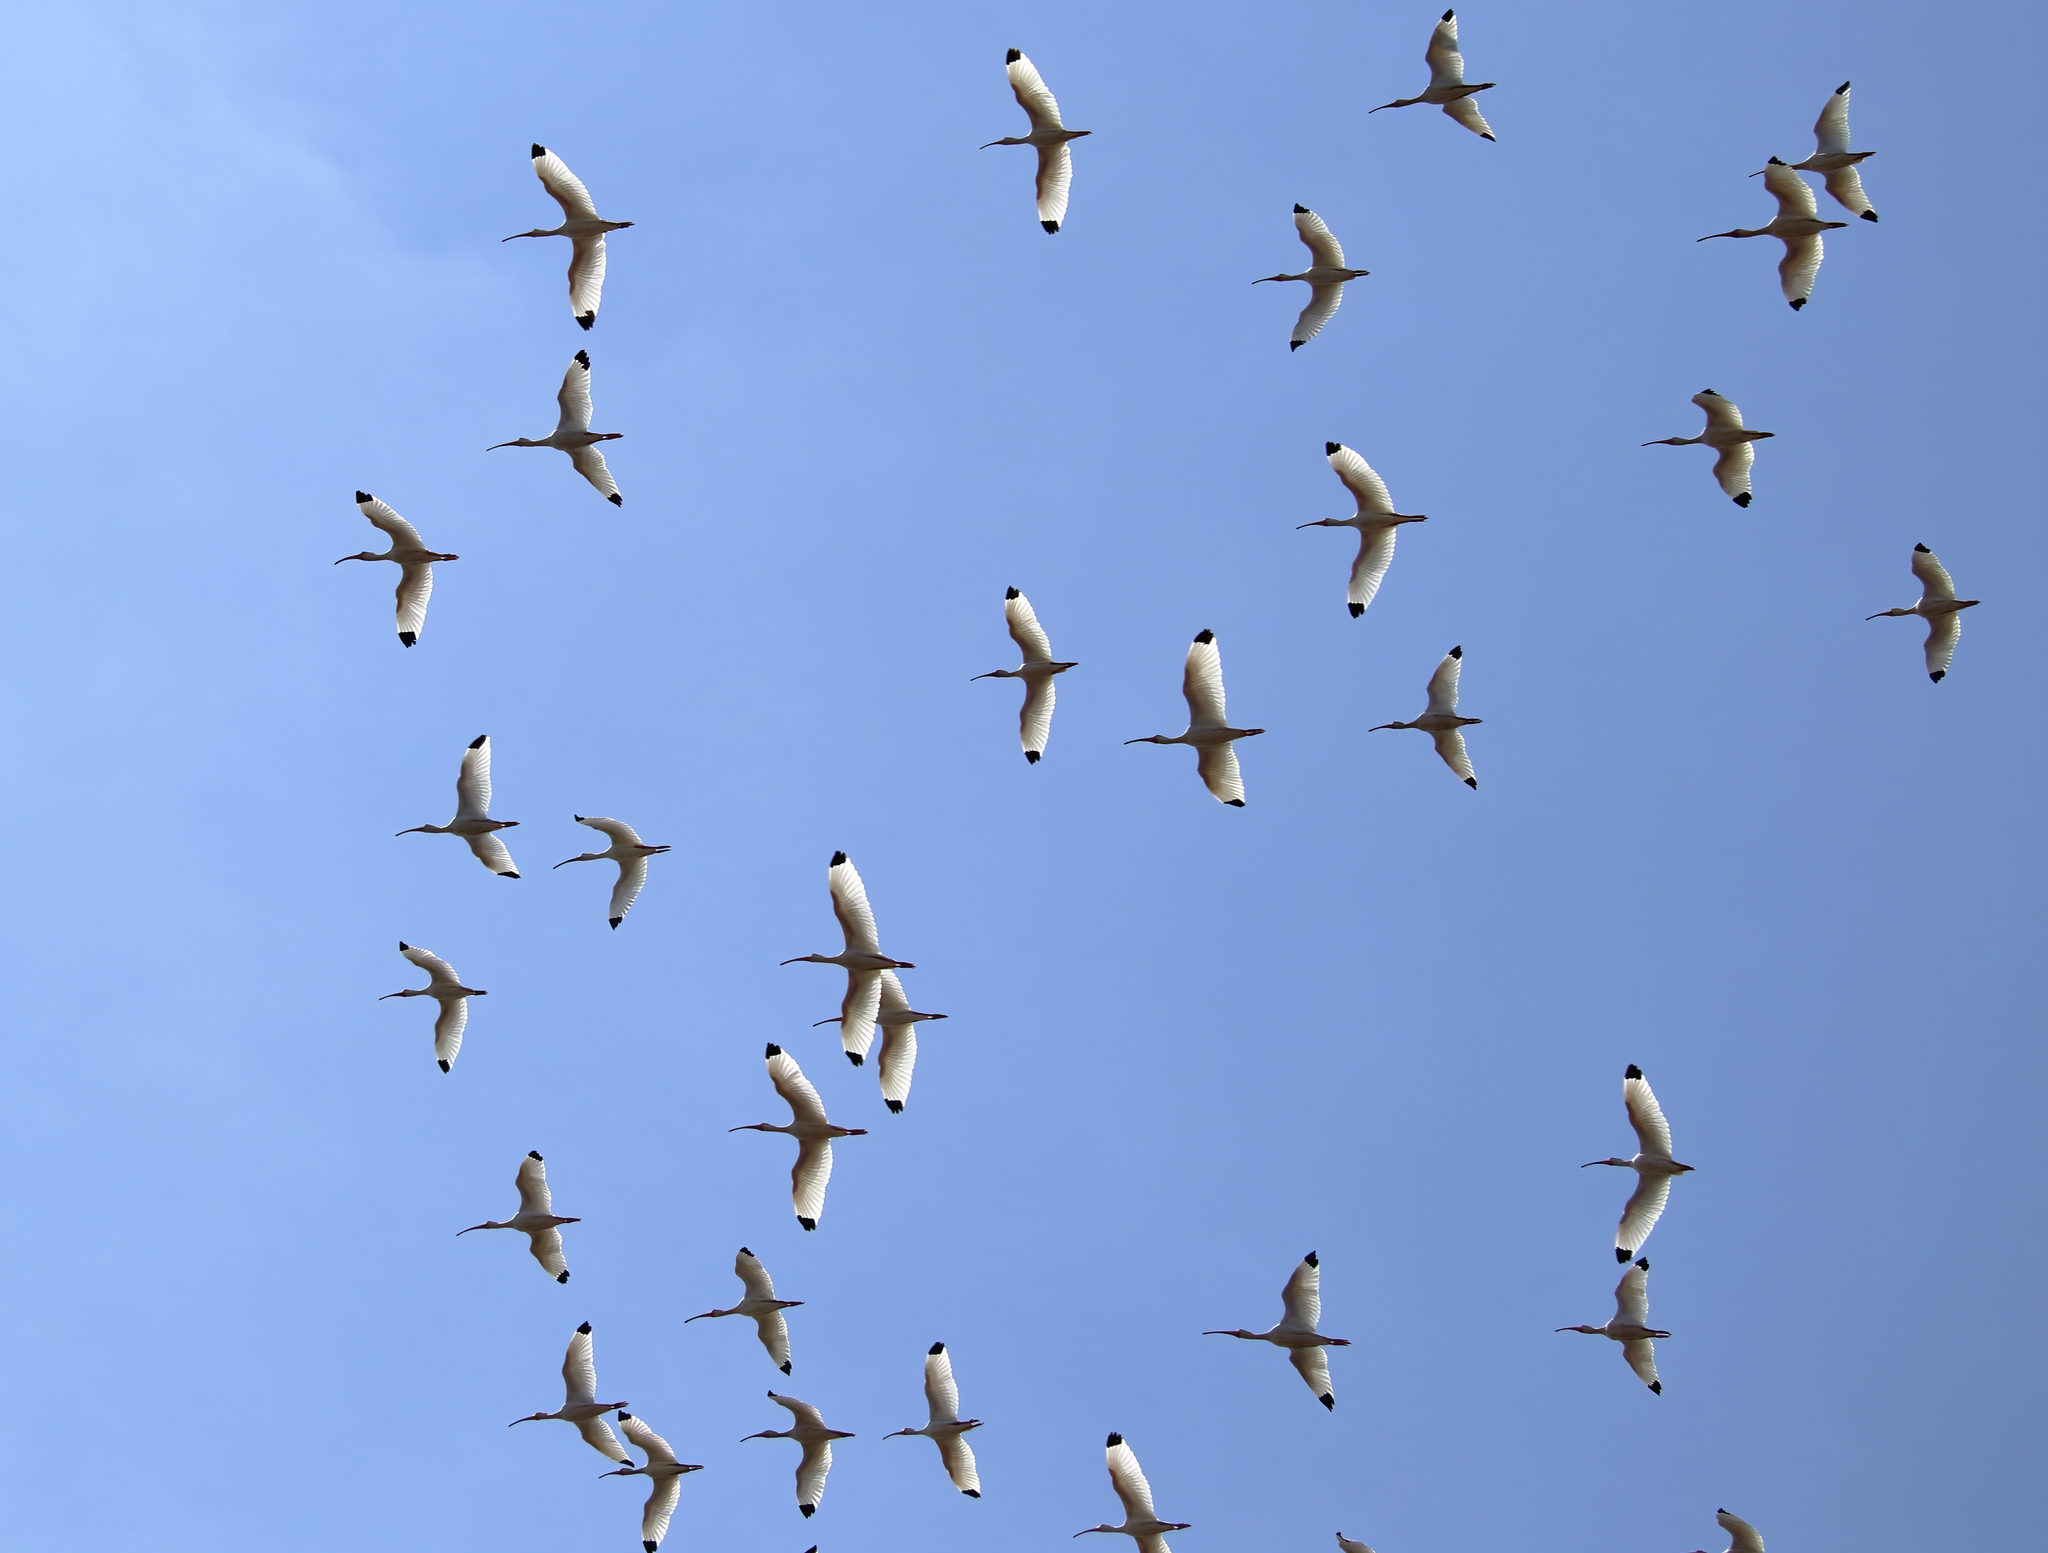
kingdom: Animalia
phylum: Chordata
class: Aves
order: Pelecaniformes
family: Threskiornithidae
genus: Eudocimus
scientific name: Eudocimus albus
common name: White ibis
